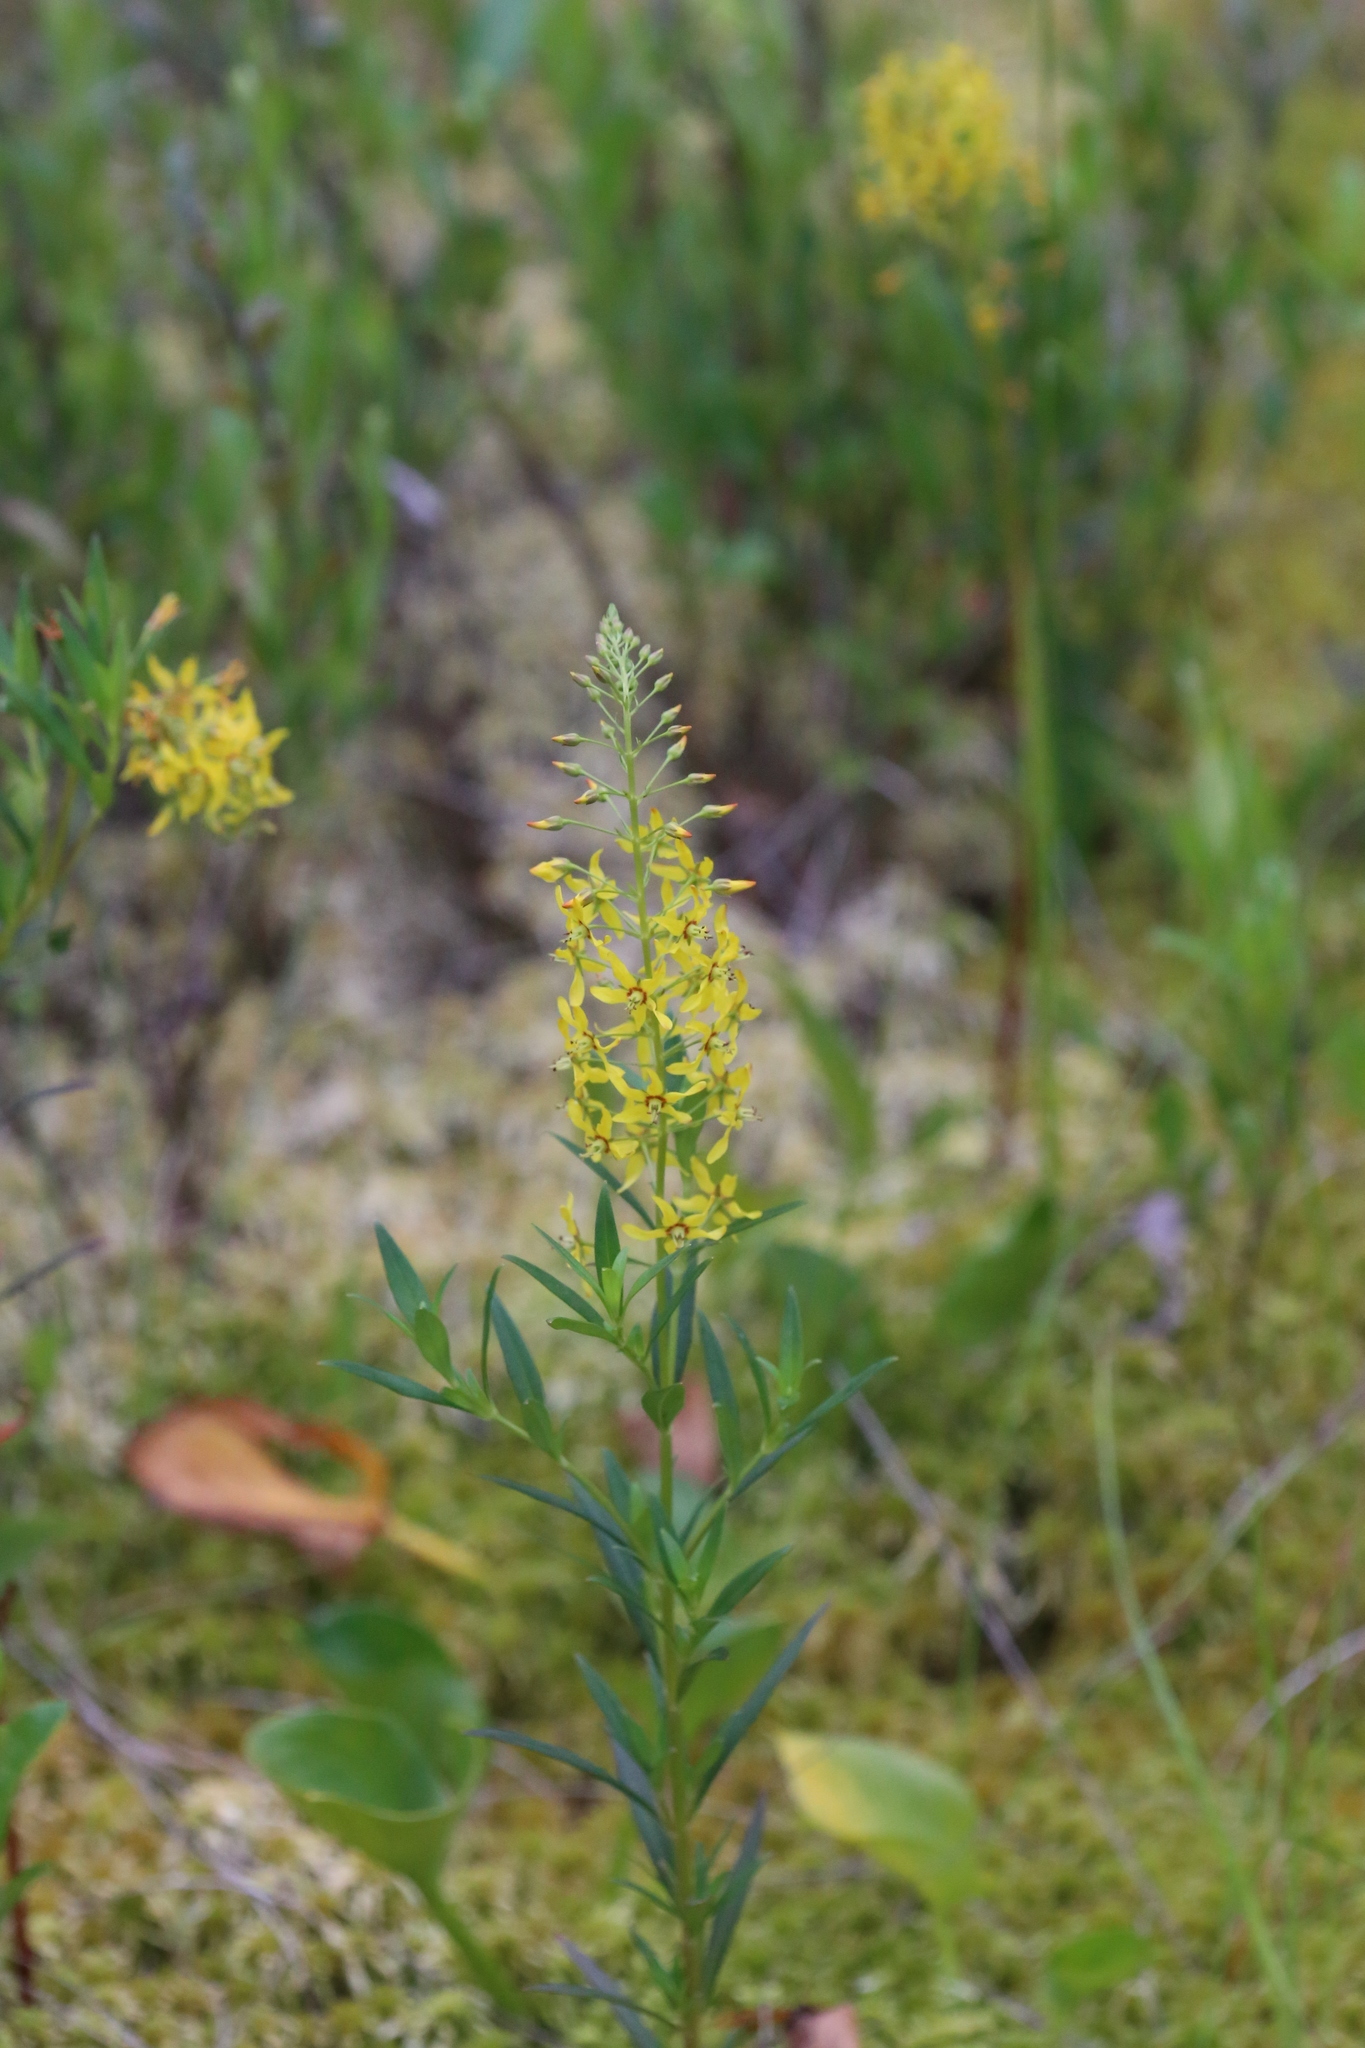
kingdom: Plantae
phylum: Tracheophyta
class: Magnoliopsida
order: Ericales
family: Primulaceae
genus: Lysimachia
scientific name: Lysimachia terrestris
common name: Lake loosestrife
